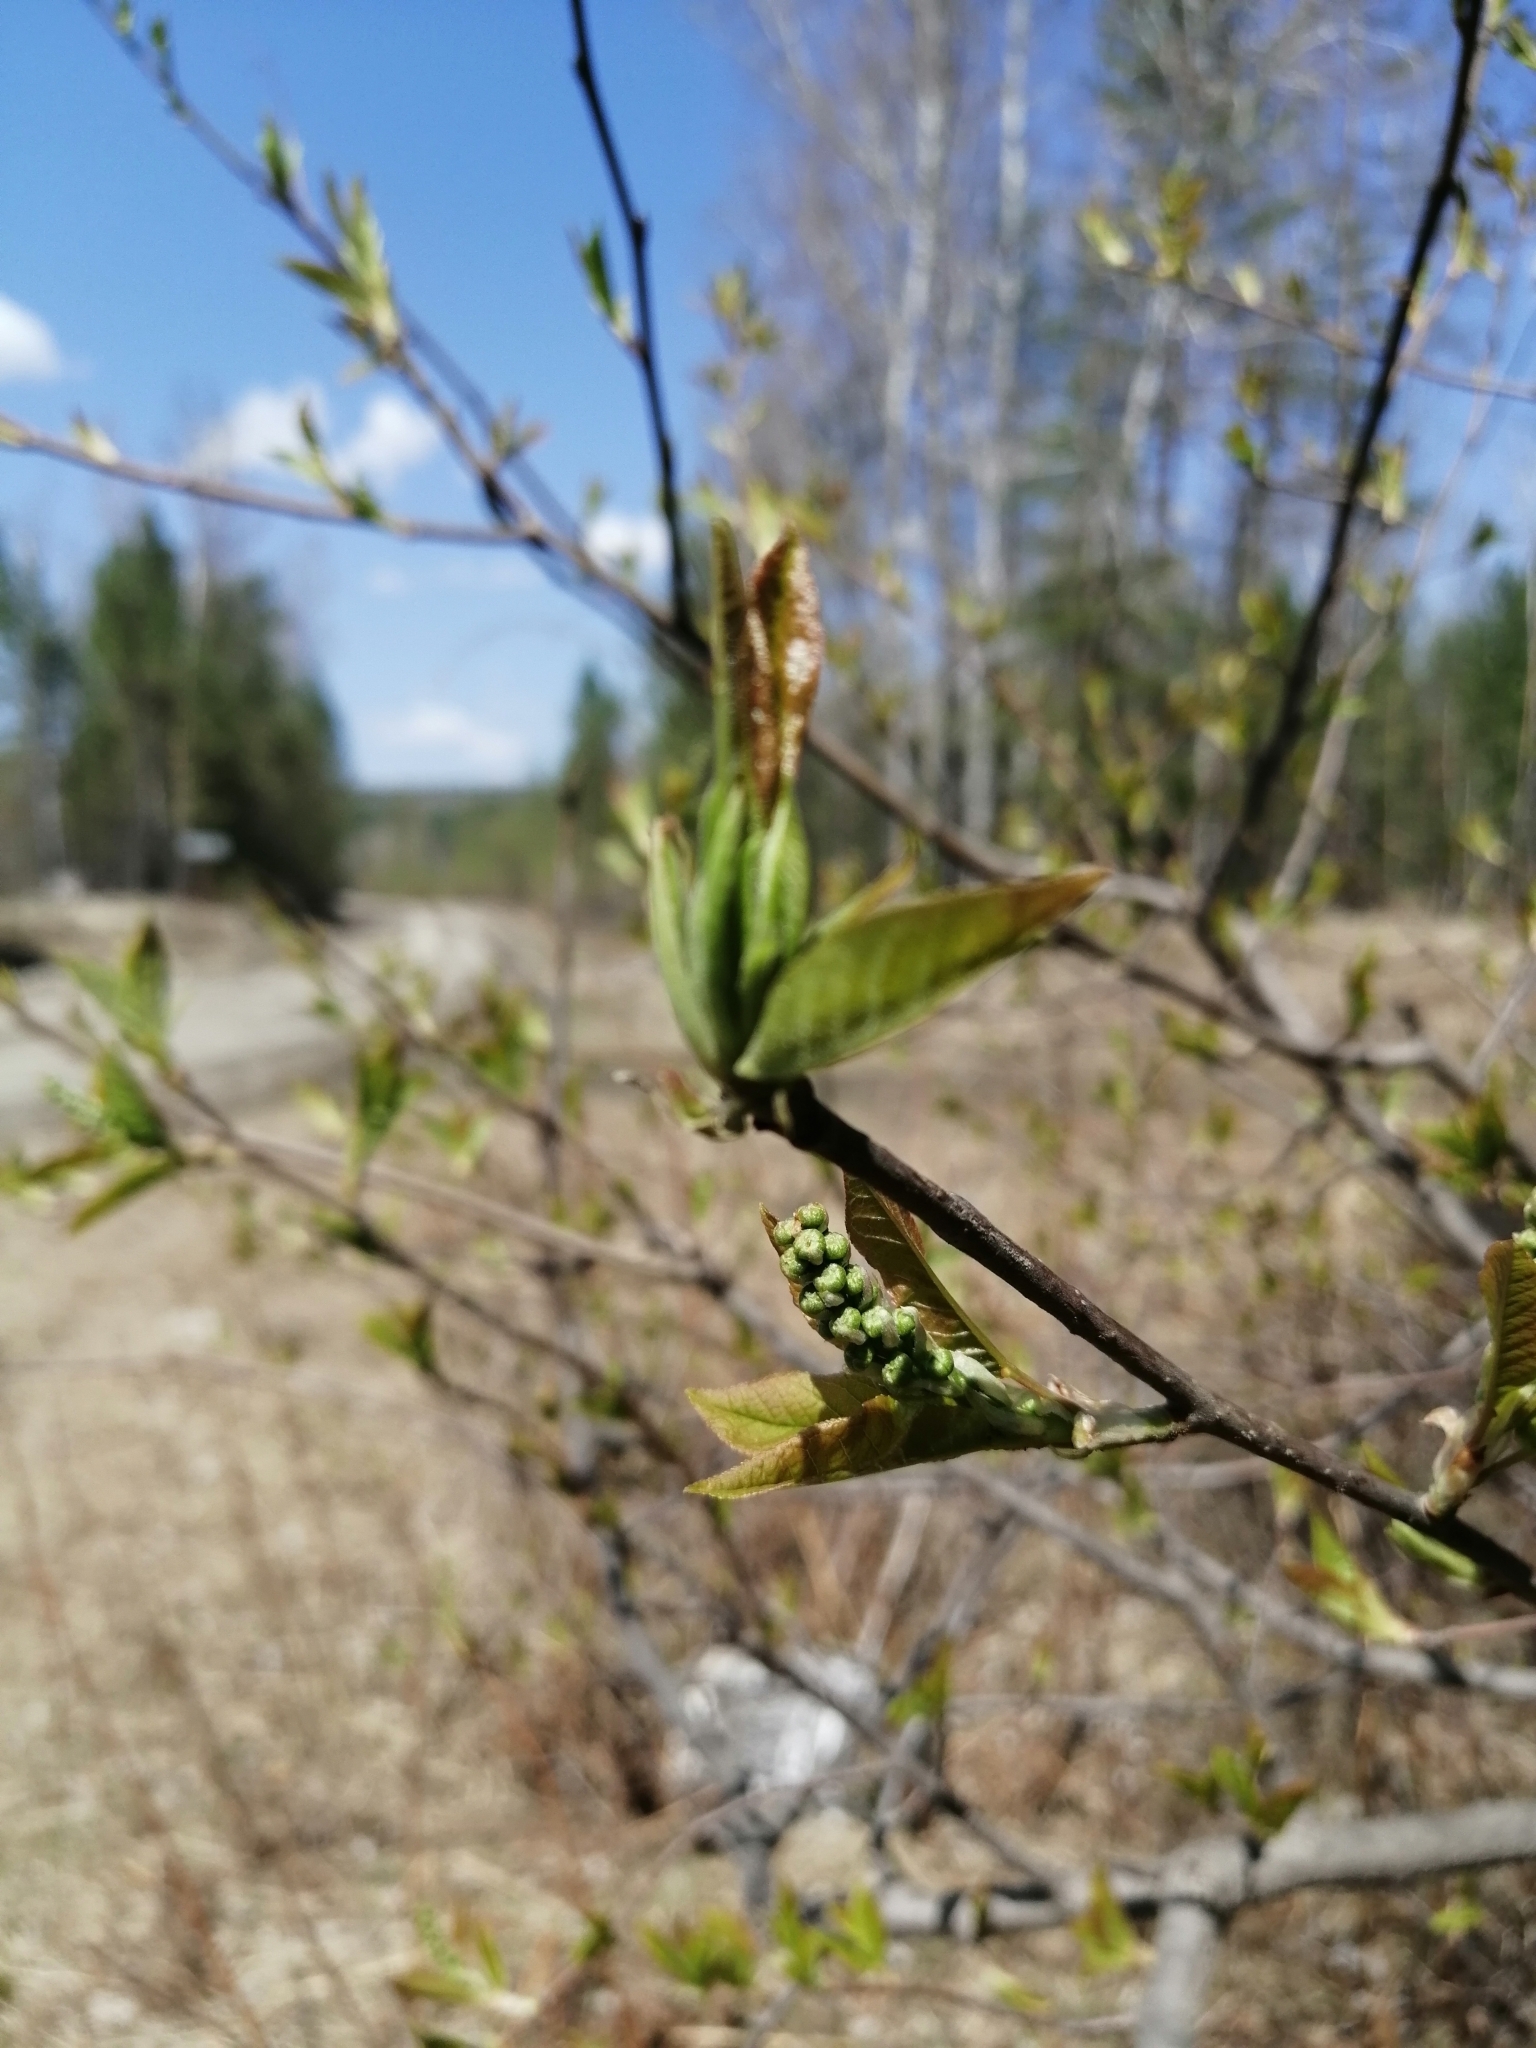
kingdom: Plantae
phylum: Tracheophyta
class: Magnoliopsida
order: Rosales
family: Rosaceae
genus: Prunus
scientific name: Prunus padus
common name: Bird cherry
